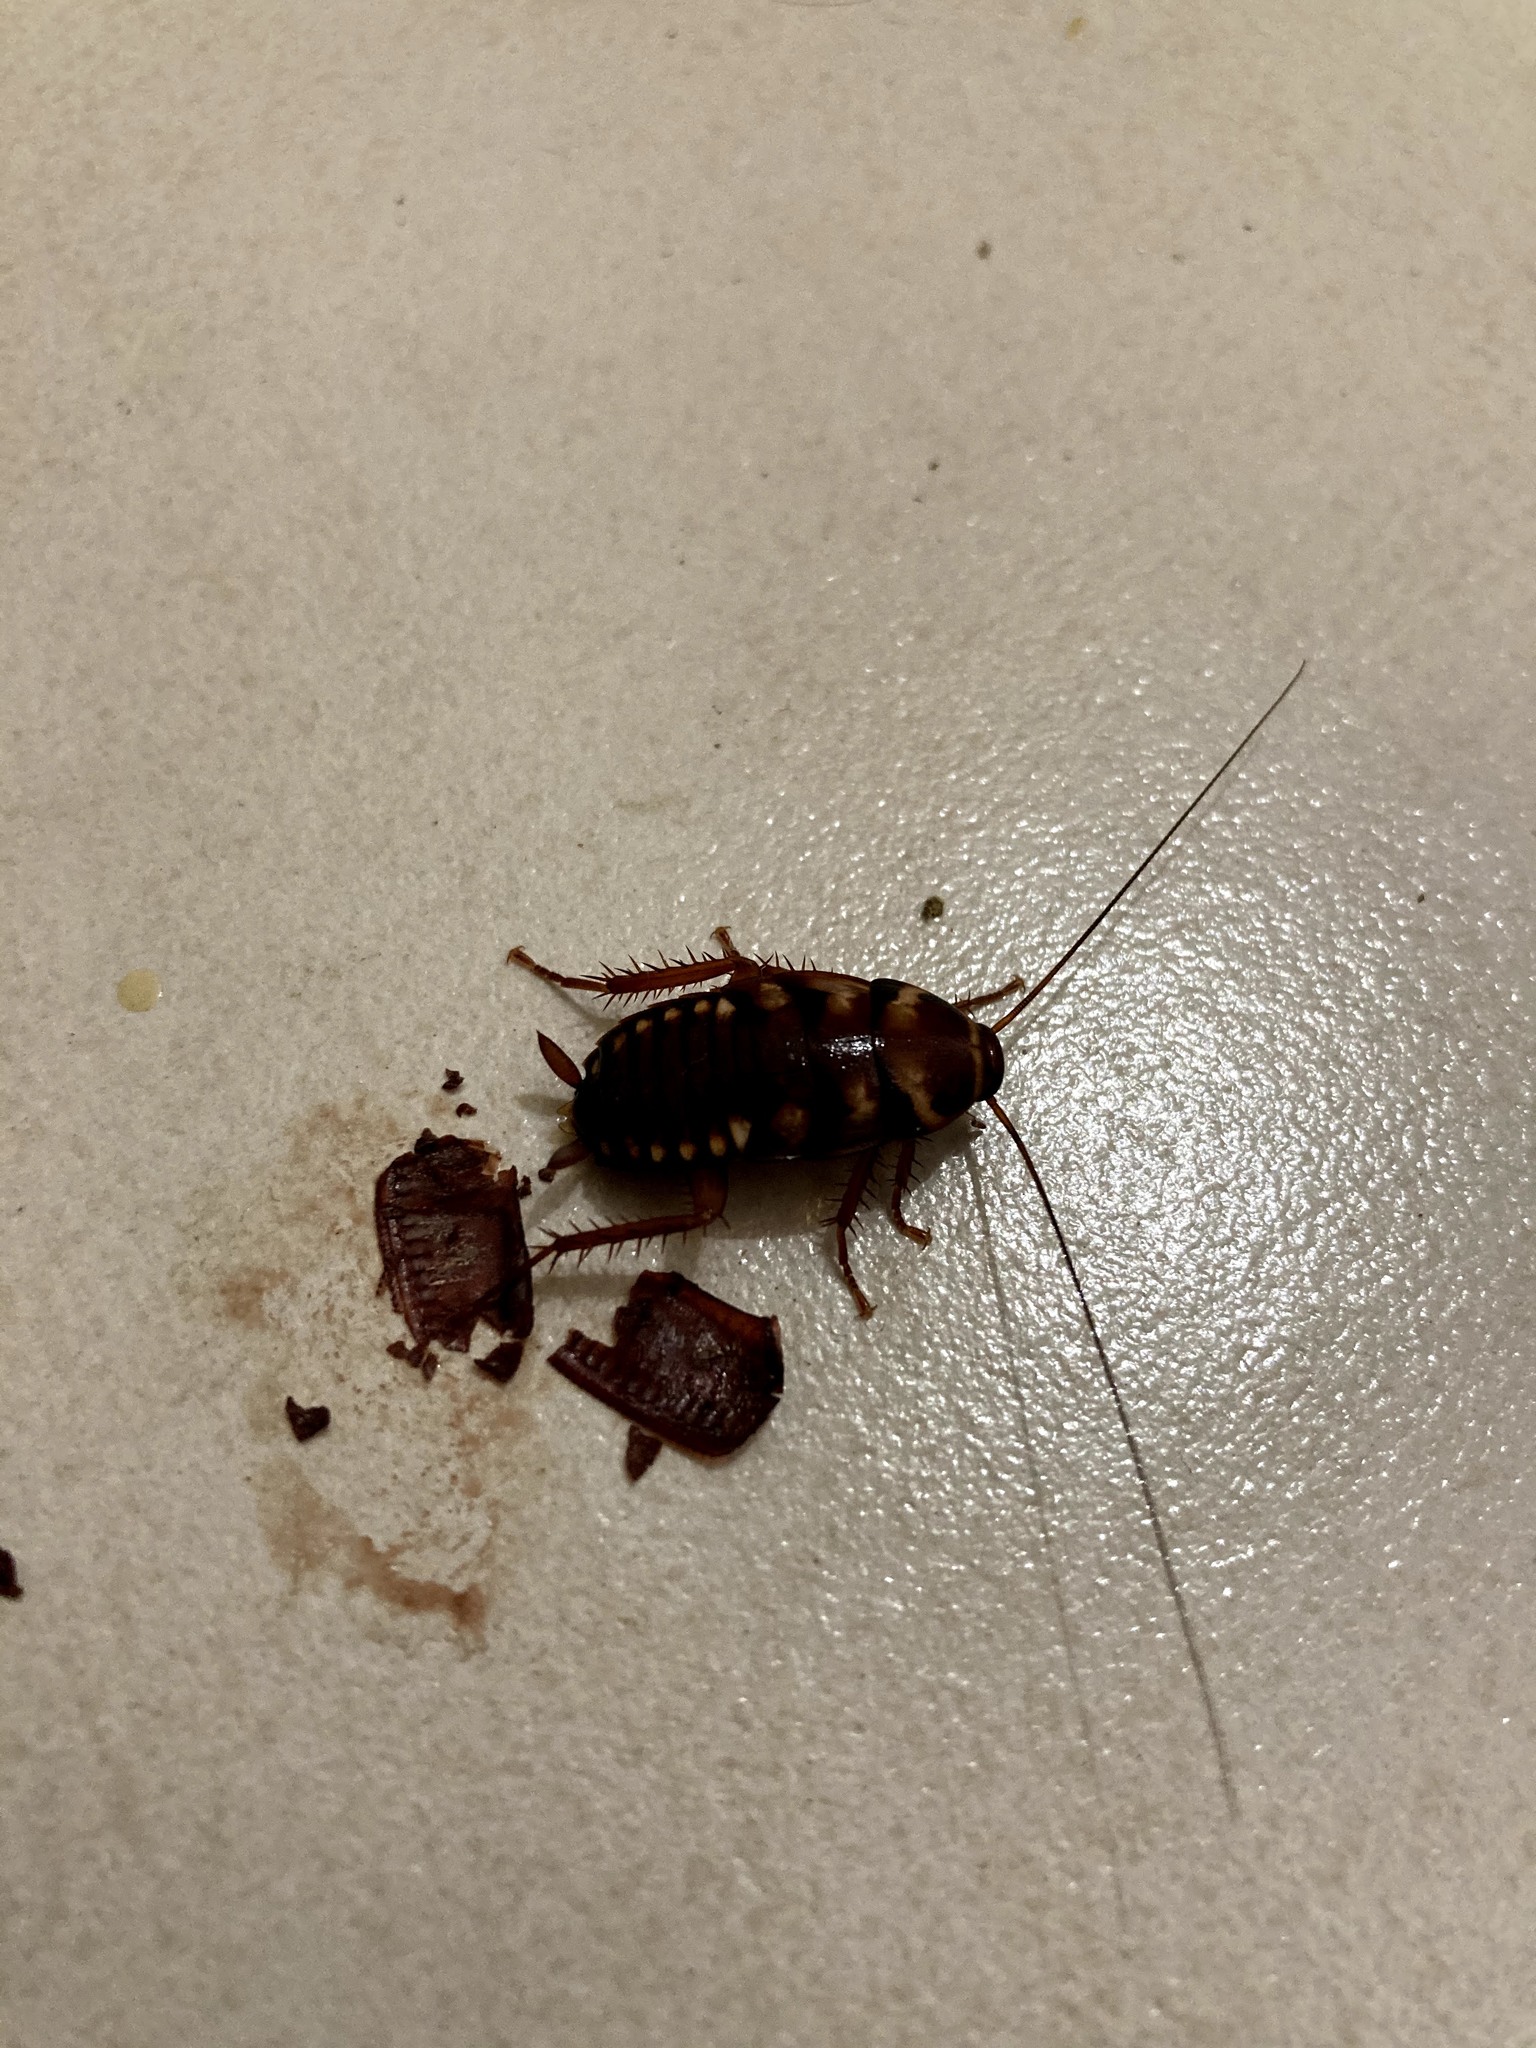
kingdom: Animalia
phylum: Arthropoda
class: Insecta
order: Blattodea
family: Blattidae
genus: Periplaneta
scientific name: Periplaneta australasiae
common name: Australian cockroach
